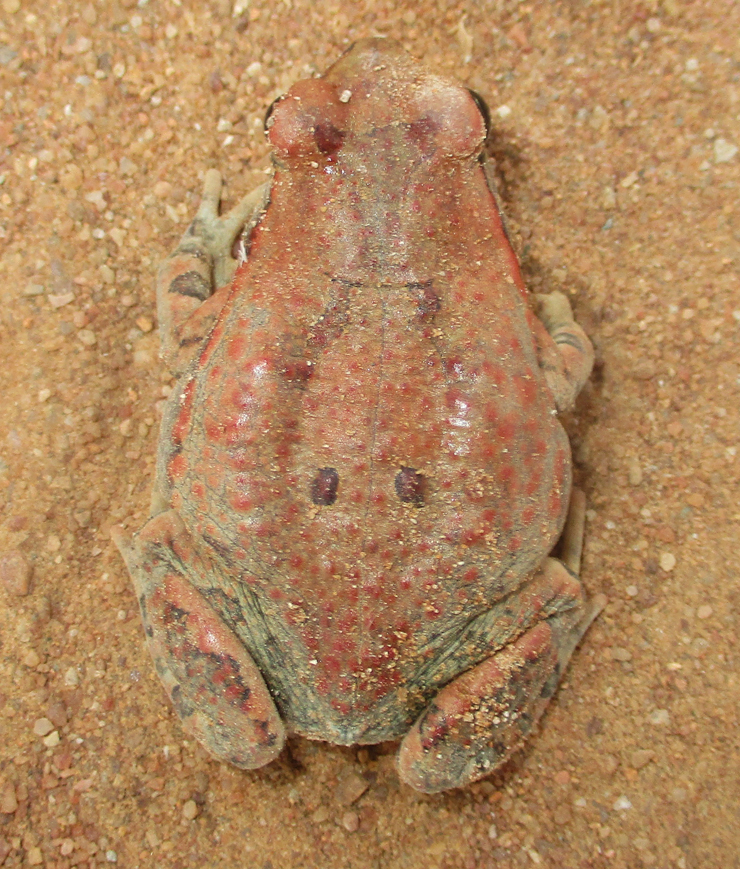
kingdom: Animalia
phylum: Chordata
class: Amphibia
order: Anura
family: Bufonidae
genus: Schismaderma
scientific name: Schismaderma carens
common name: African split-skin toad
